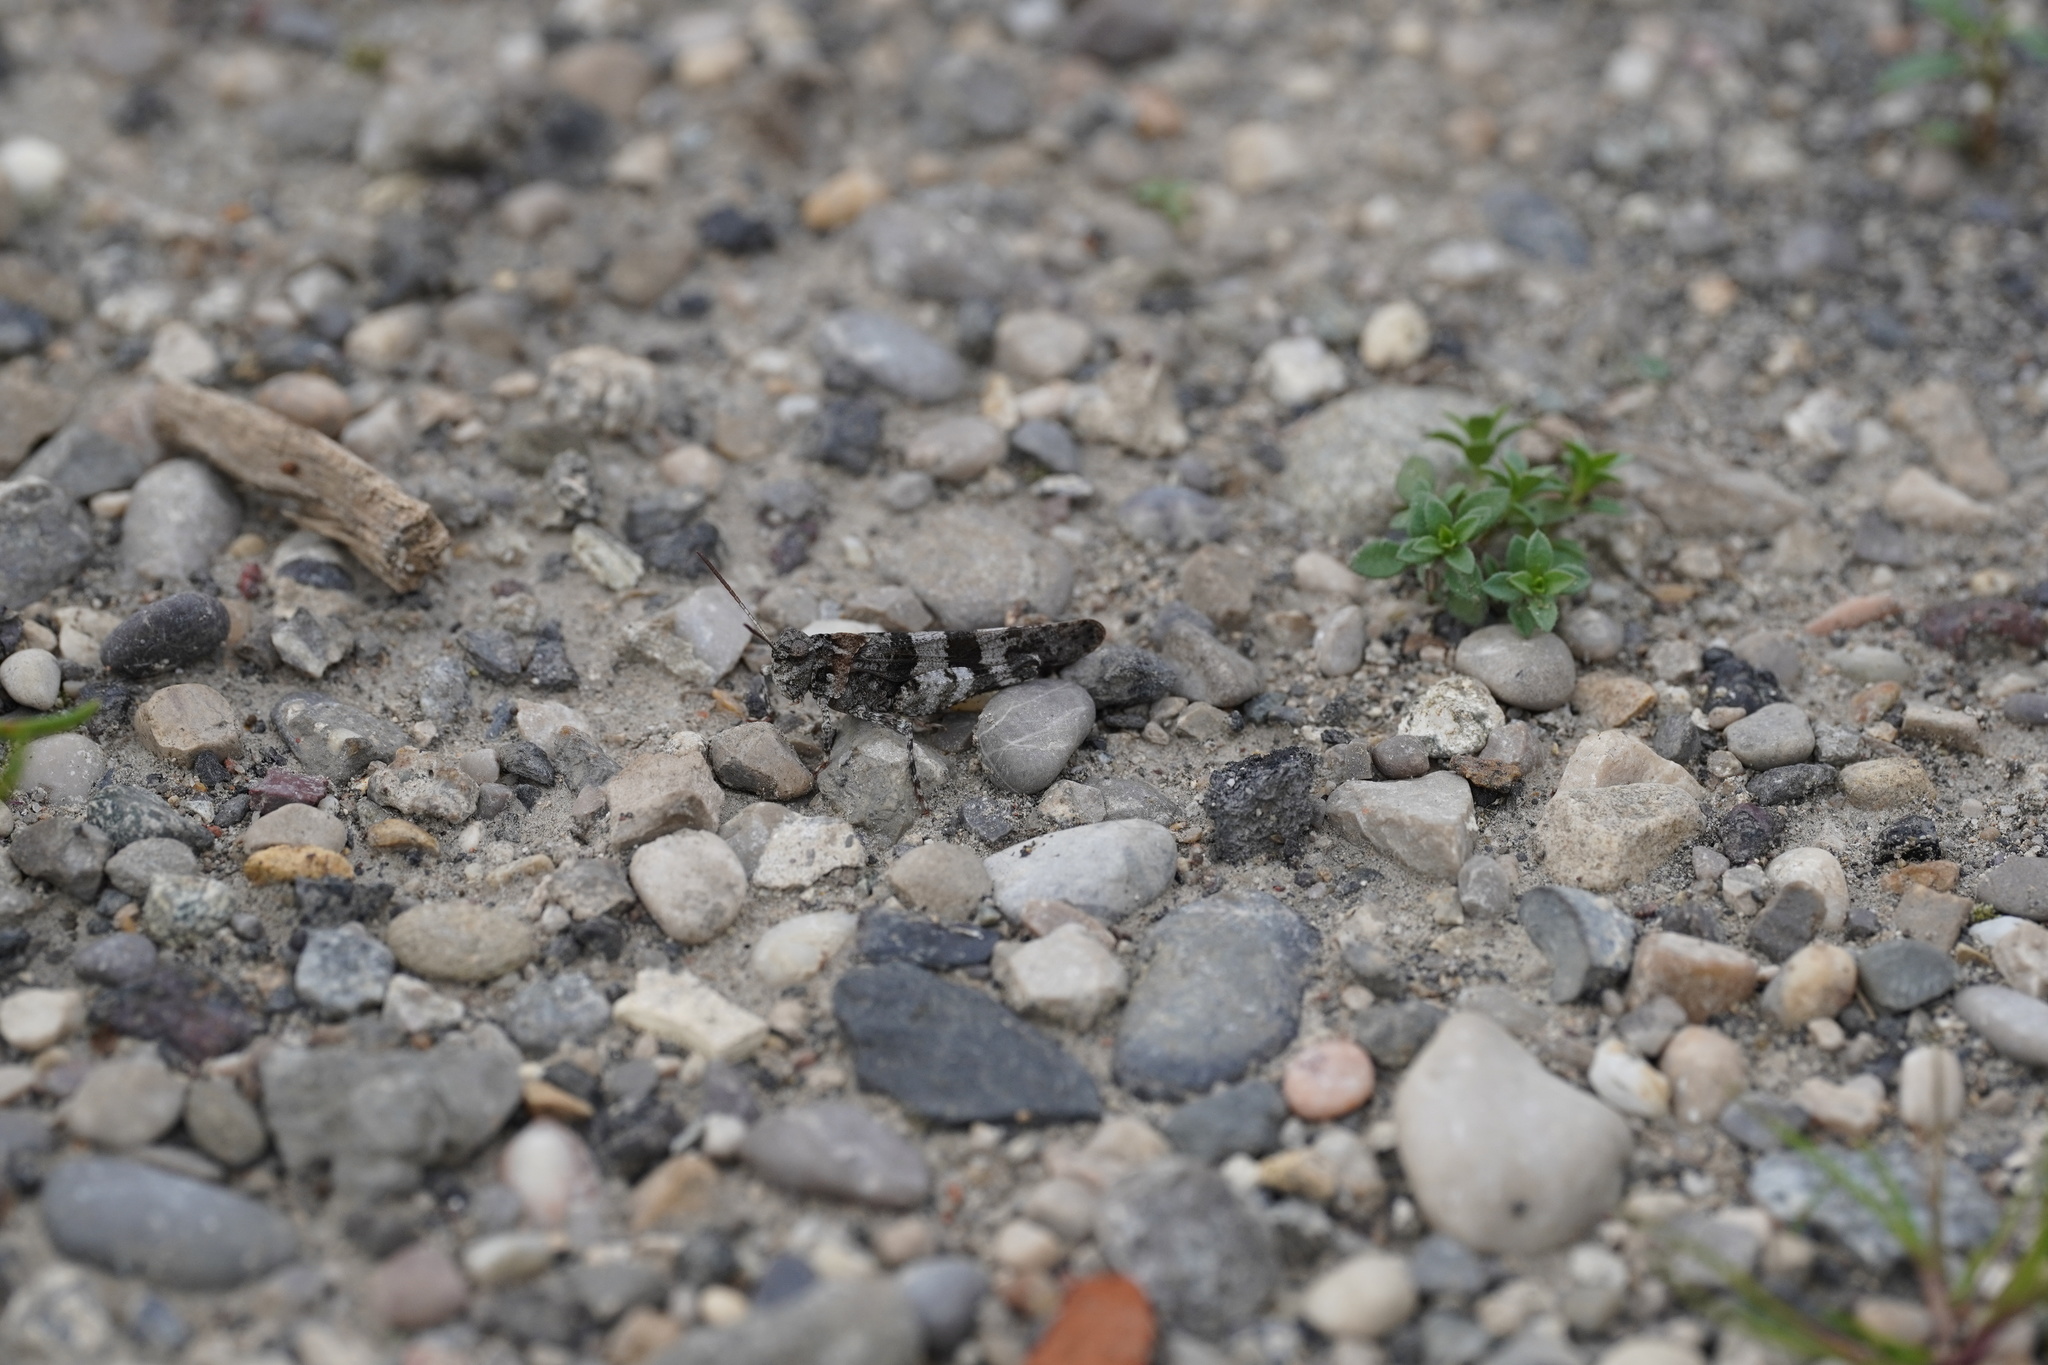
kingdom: Animalia
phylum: Arthropoda
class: Insecta
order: Orthoptera
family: Acrididae
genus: Oedipoda
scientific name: Oedipoda caerulescens
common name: Blue-winged grasshopper
